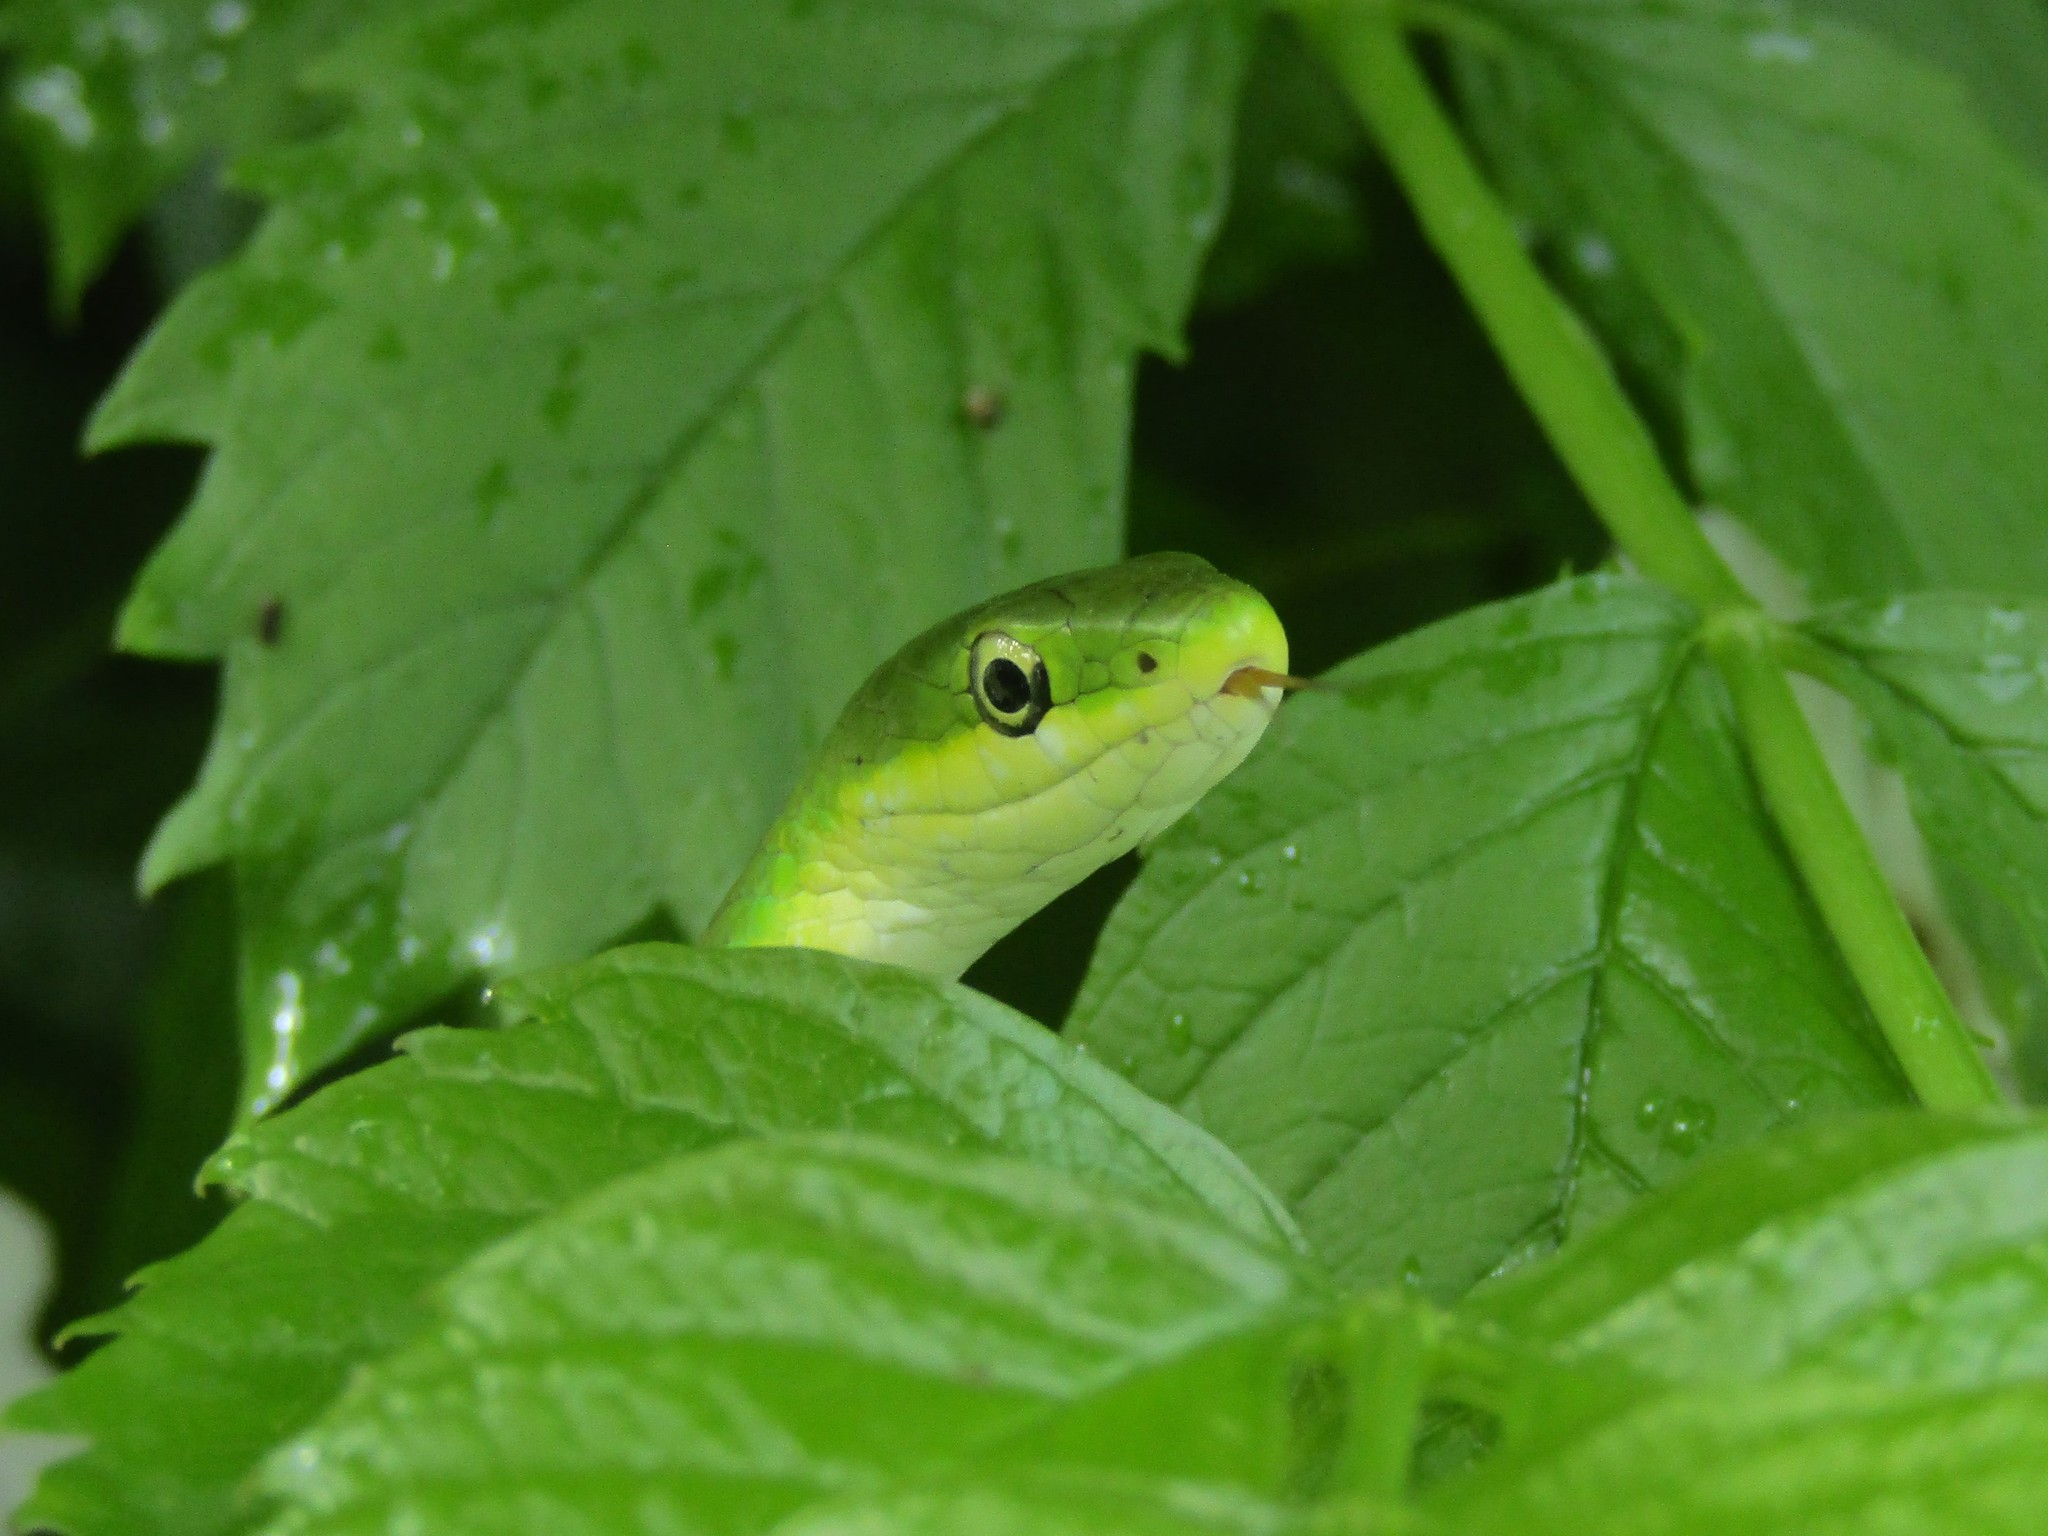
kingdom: Animalia
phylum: Chordata
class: Squamata
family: Colubridae
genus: Opheodrys
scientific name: Opheodrys aestivus
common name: Rough greensnake
